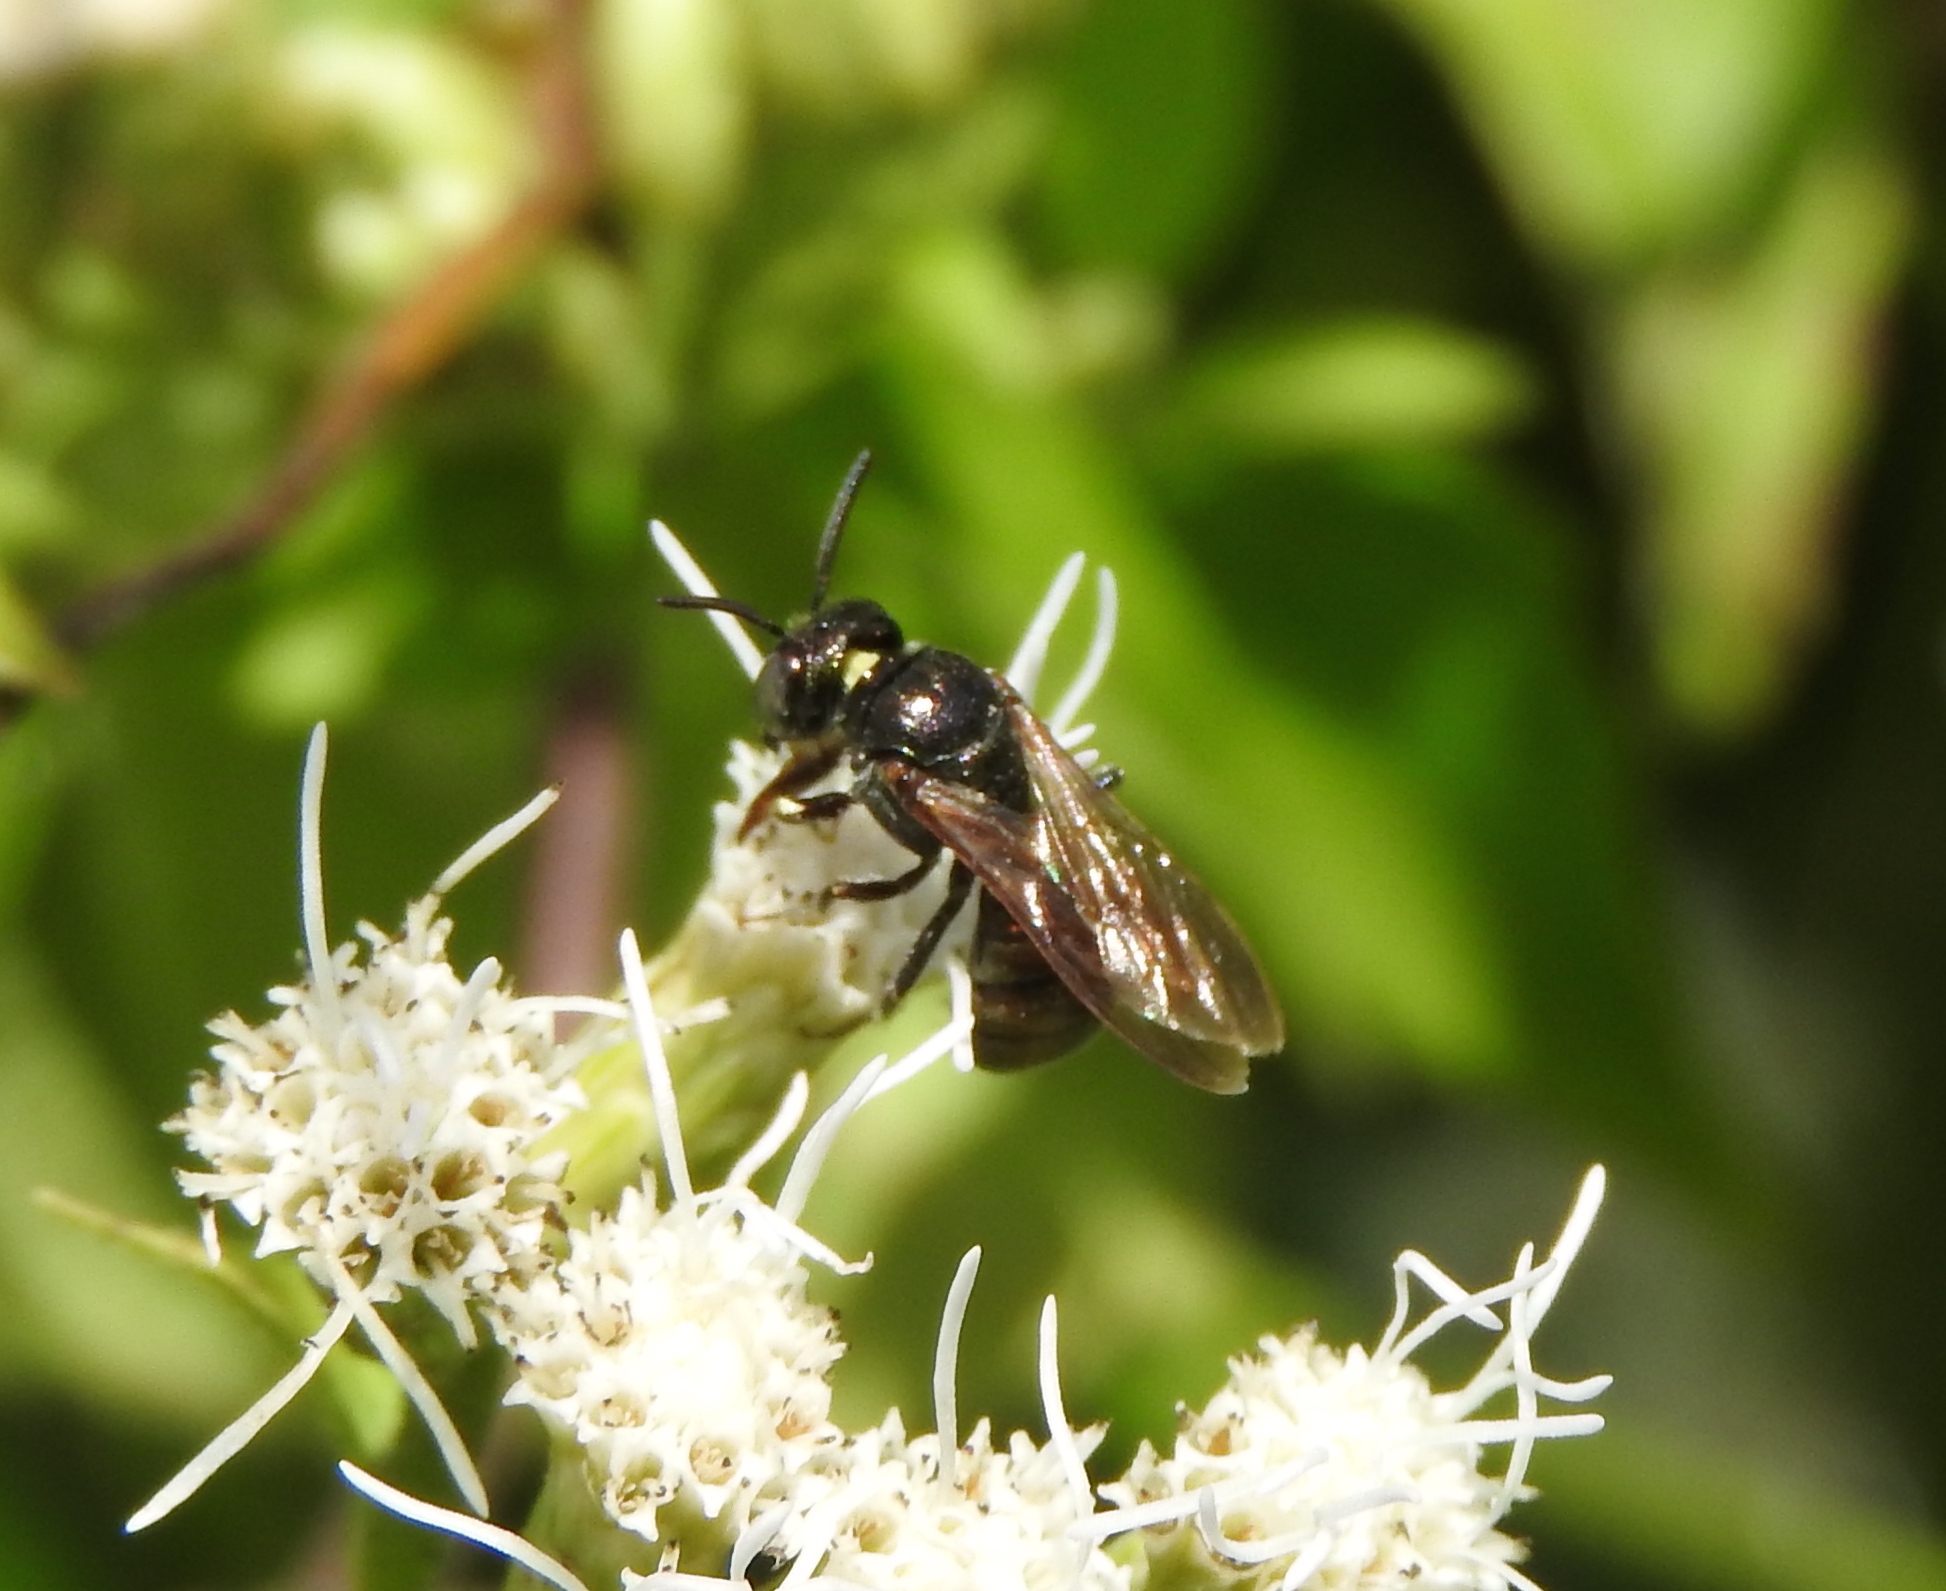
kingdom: Animalia
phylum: Arthropoda
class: Insecta
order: Hymenoptera
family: Apidae
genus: Ceratina
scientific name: Ceratina
